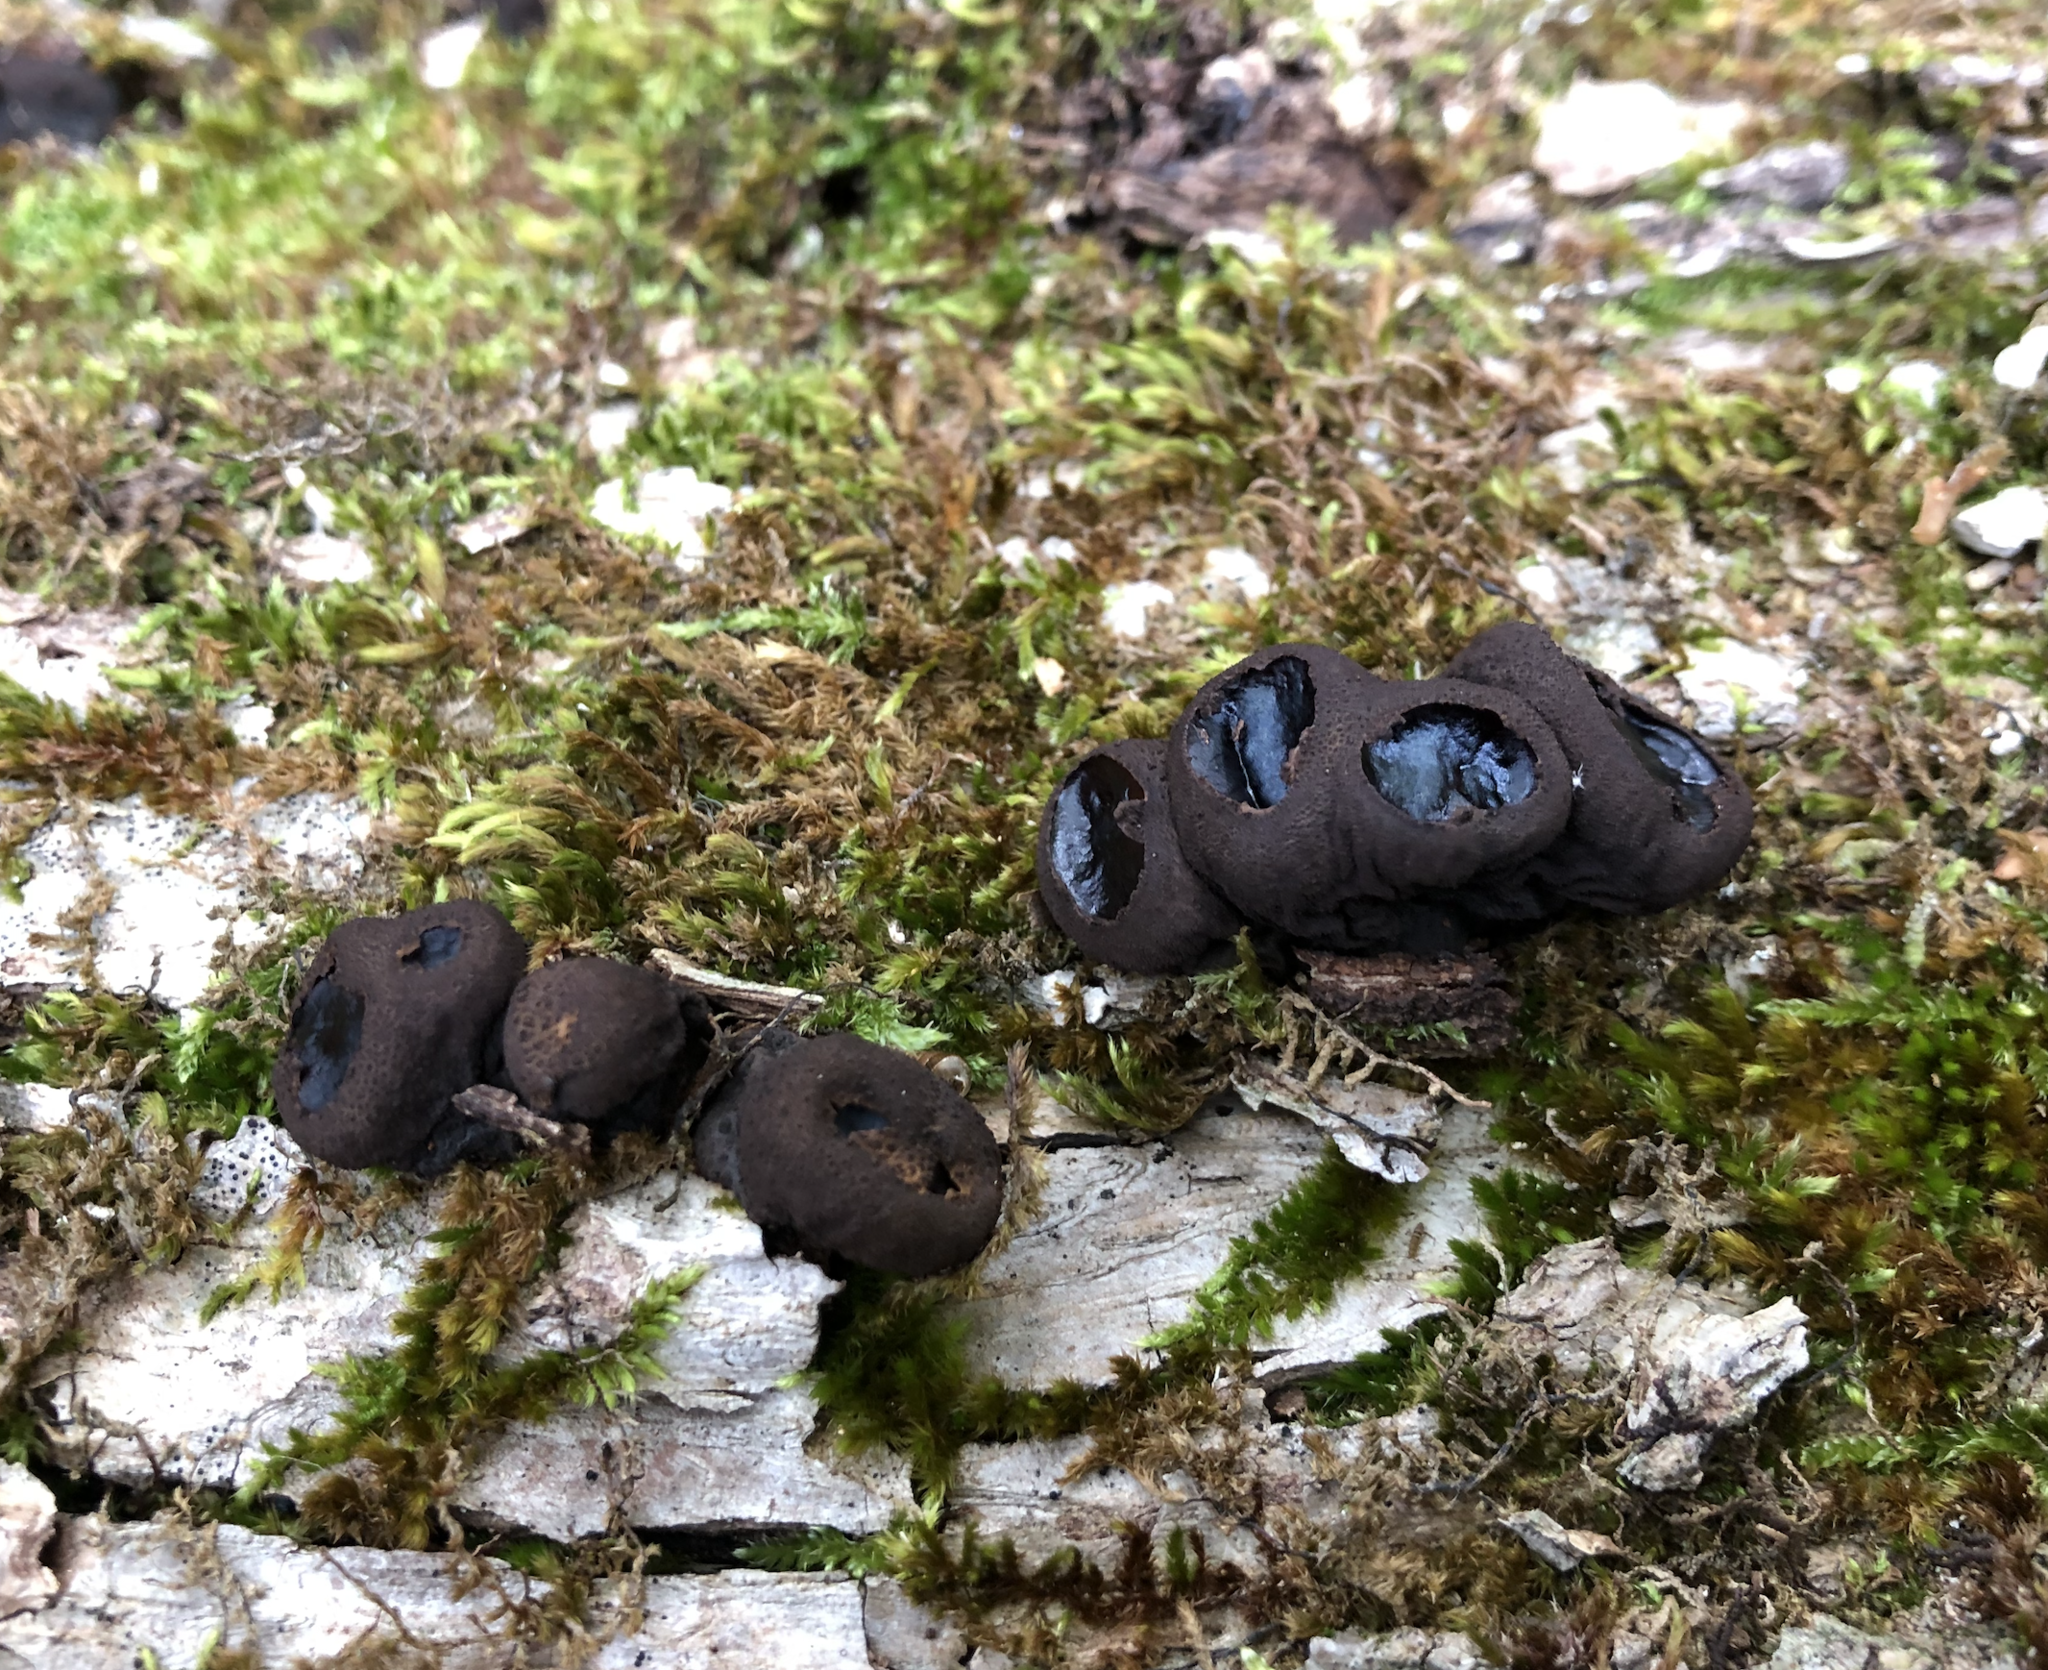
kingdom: Fungi
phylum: Ascomycota
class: Leotiomycetes
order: Phacidiales
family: Phacidiaceae
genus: Bulgaria
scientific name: Bulgaria inquinans
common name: Black bulgar
